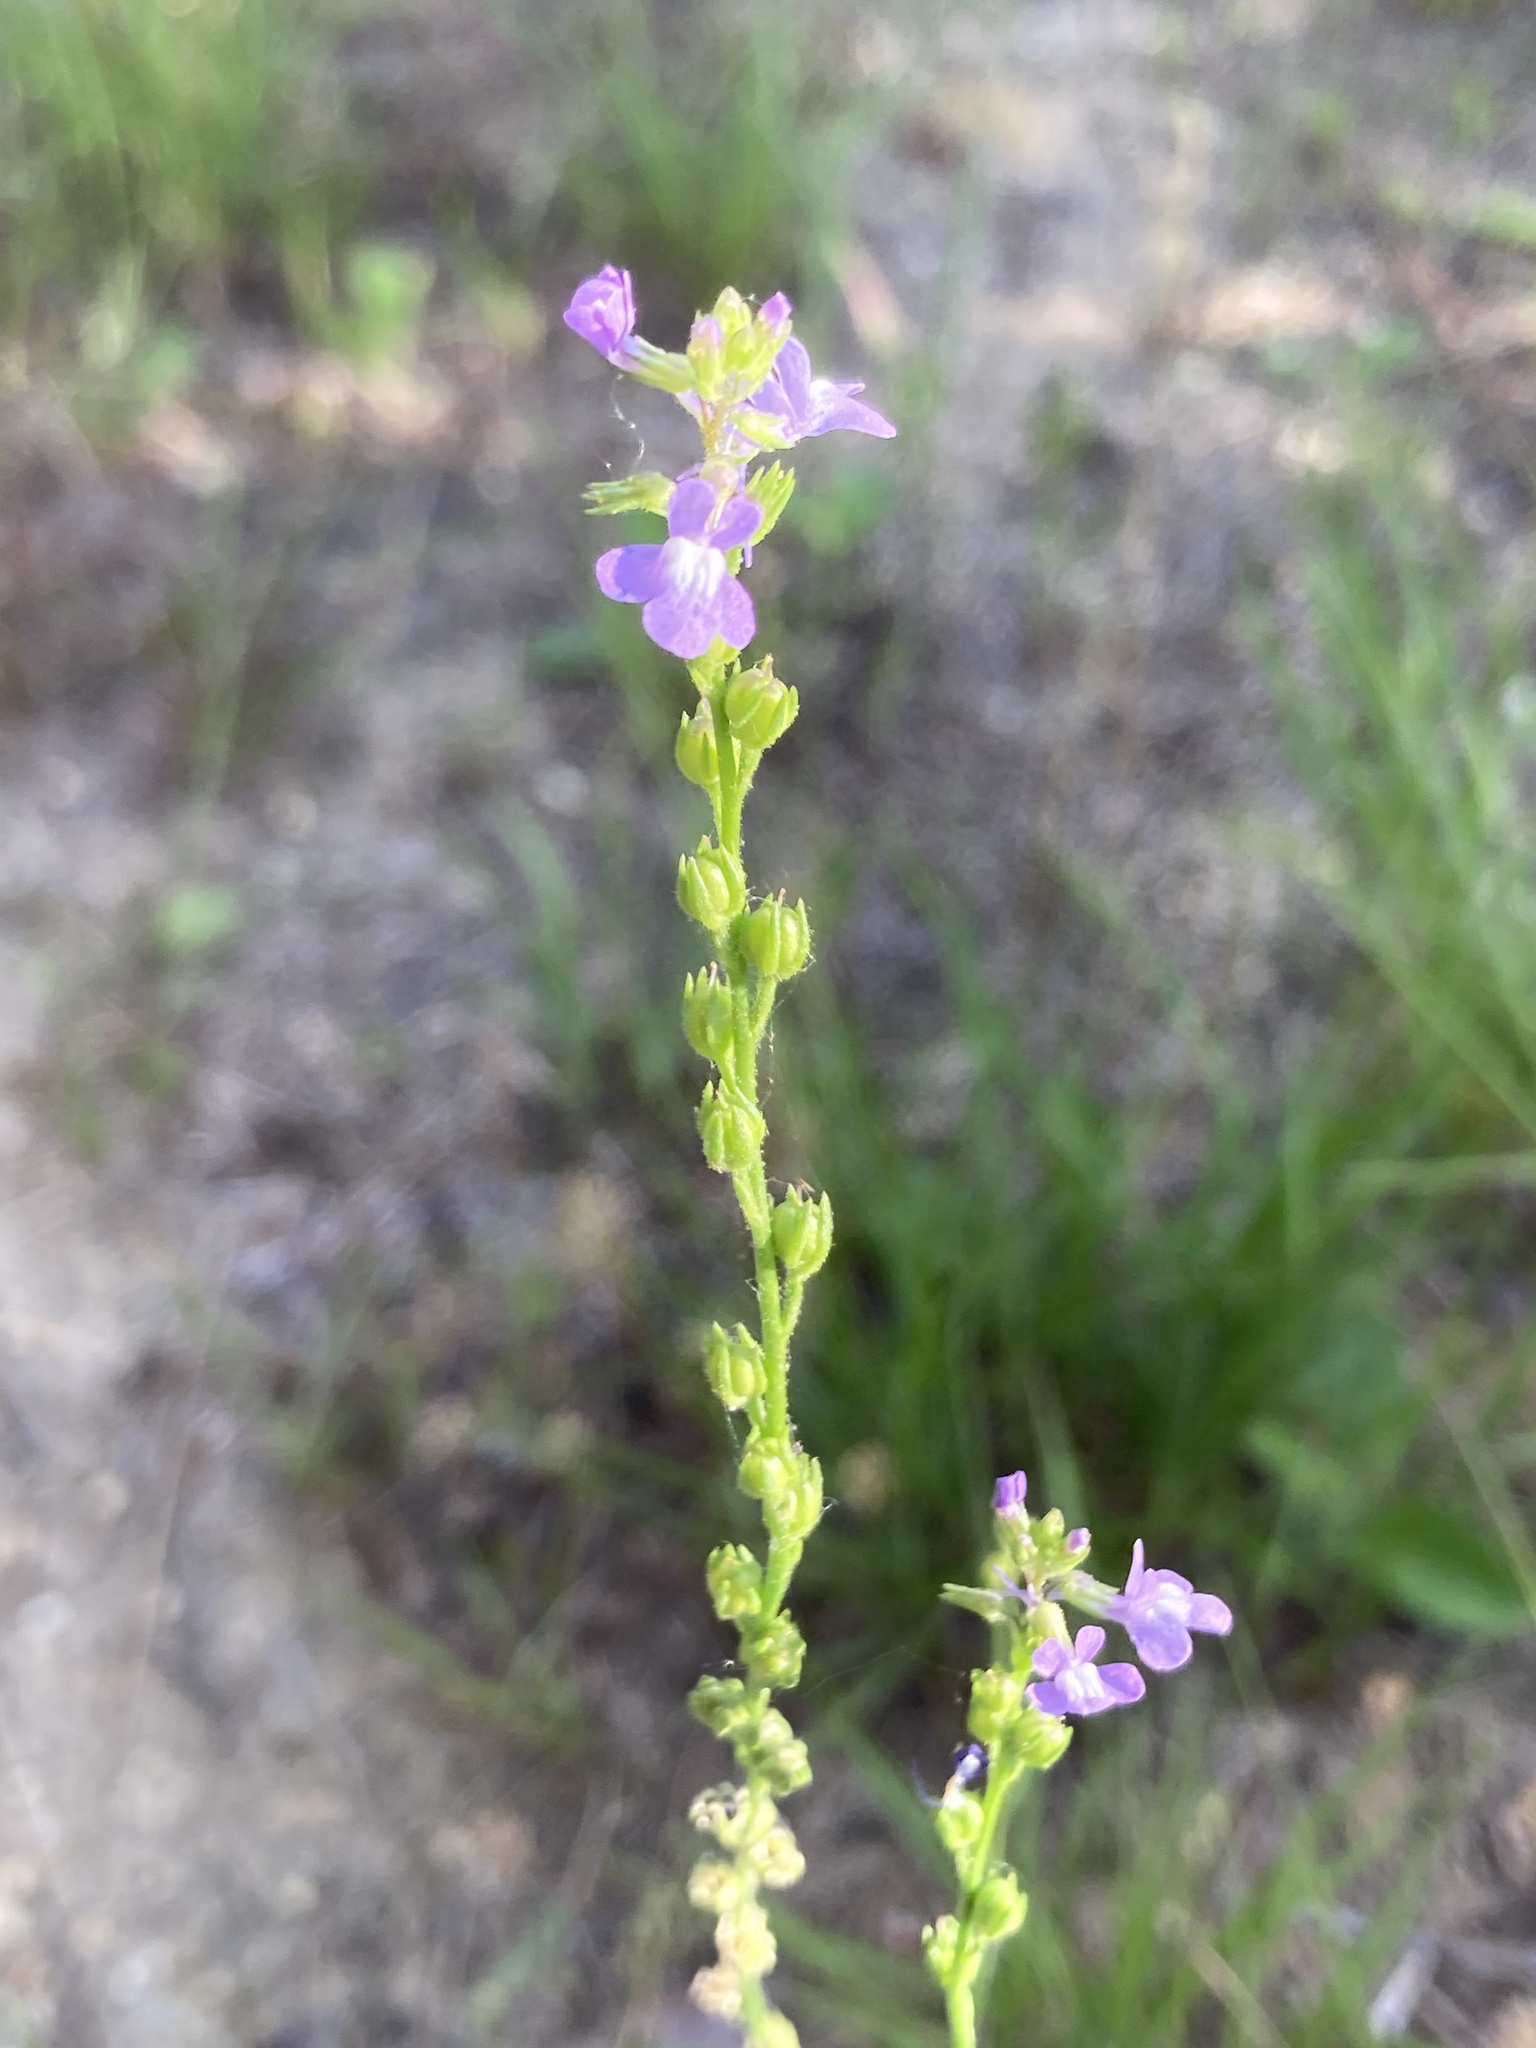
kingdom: Plantae
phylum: Tracheophyta
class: Magnoliopsida
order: Lamiales
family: Plantaginaceae
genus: Nuttallanthus
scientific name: Nuttallanthus canadensis
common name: Blue toadflax
